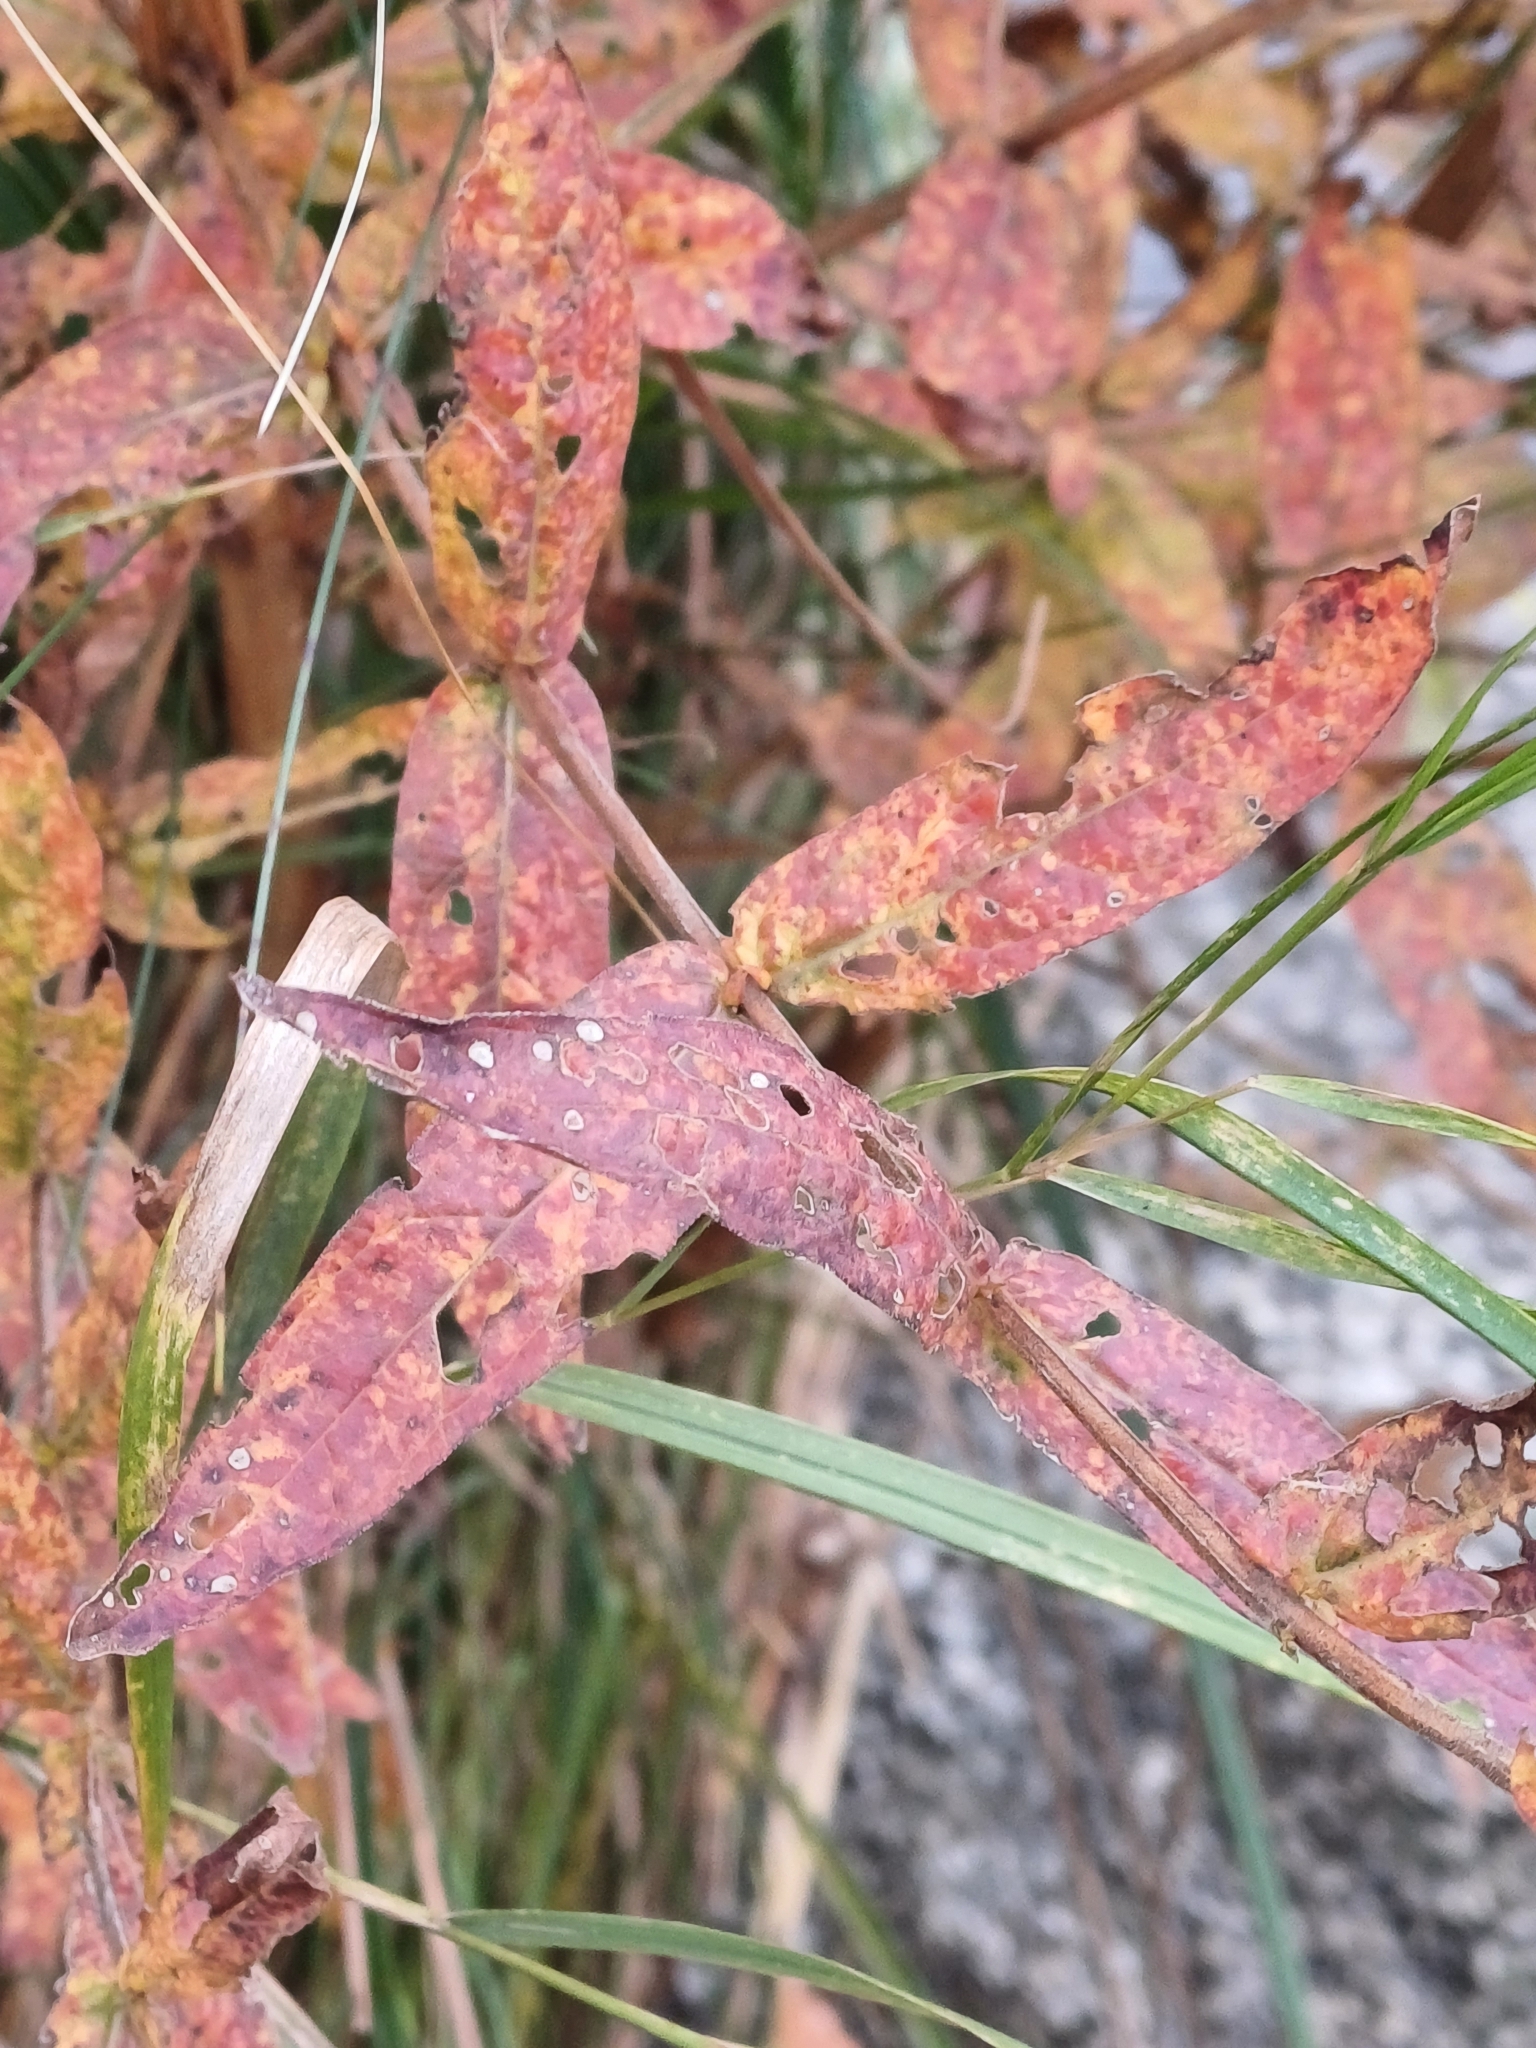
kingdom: Plantae
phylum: Tracheophyta
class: Magnoliopsida
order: Myrtales
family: Lythraceae
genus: Lythrum
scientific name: Lythrum salicaria
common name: Purple loosestrife
